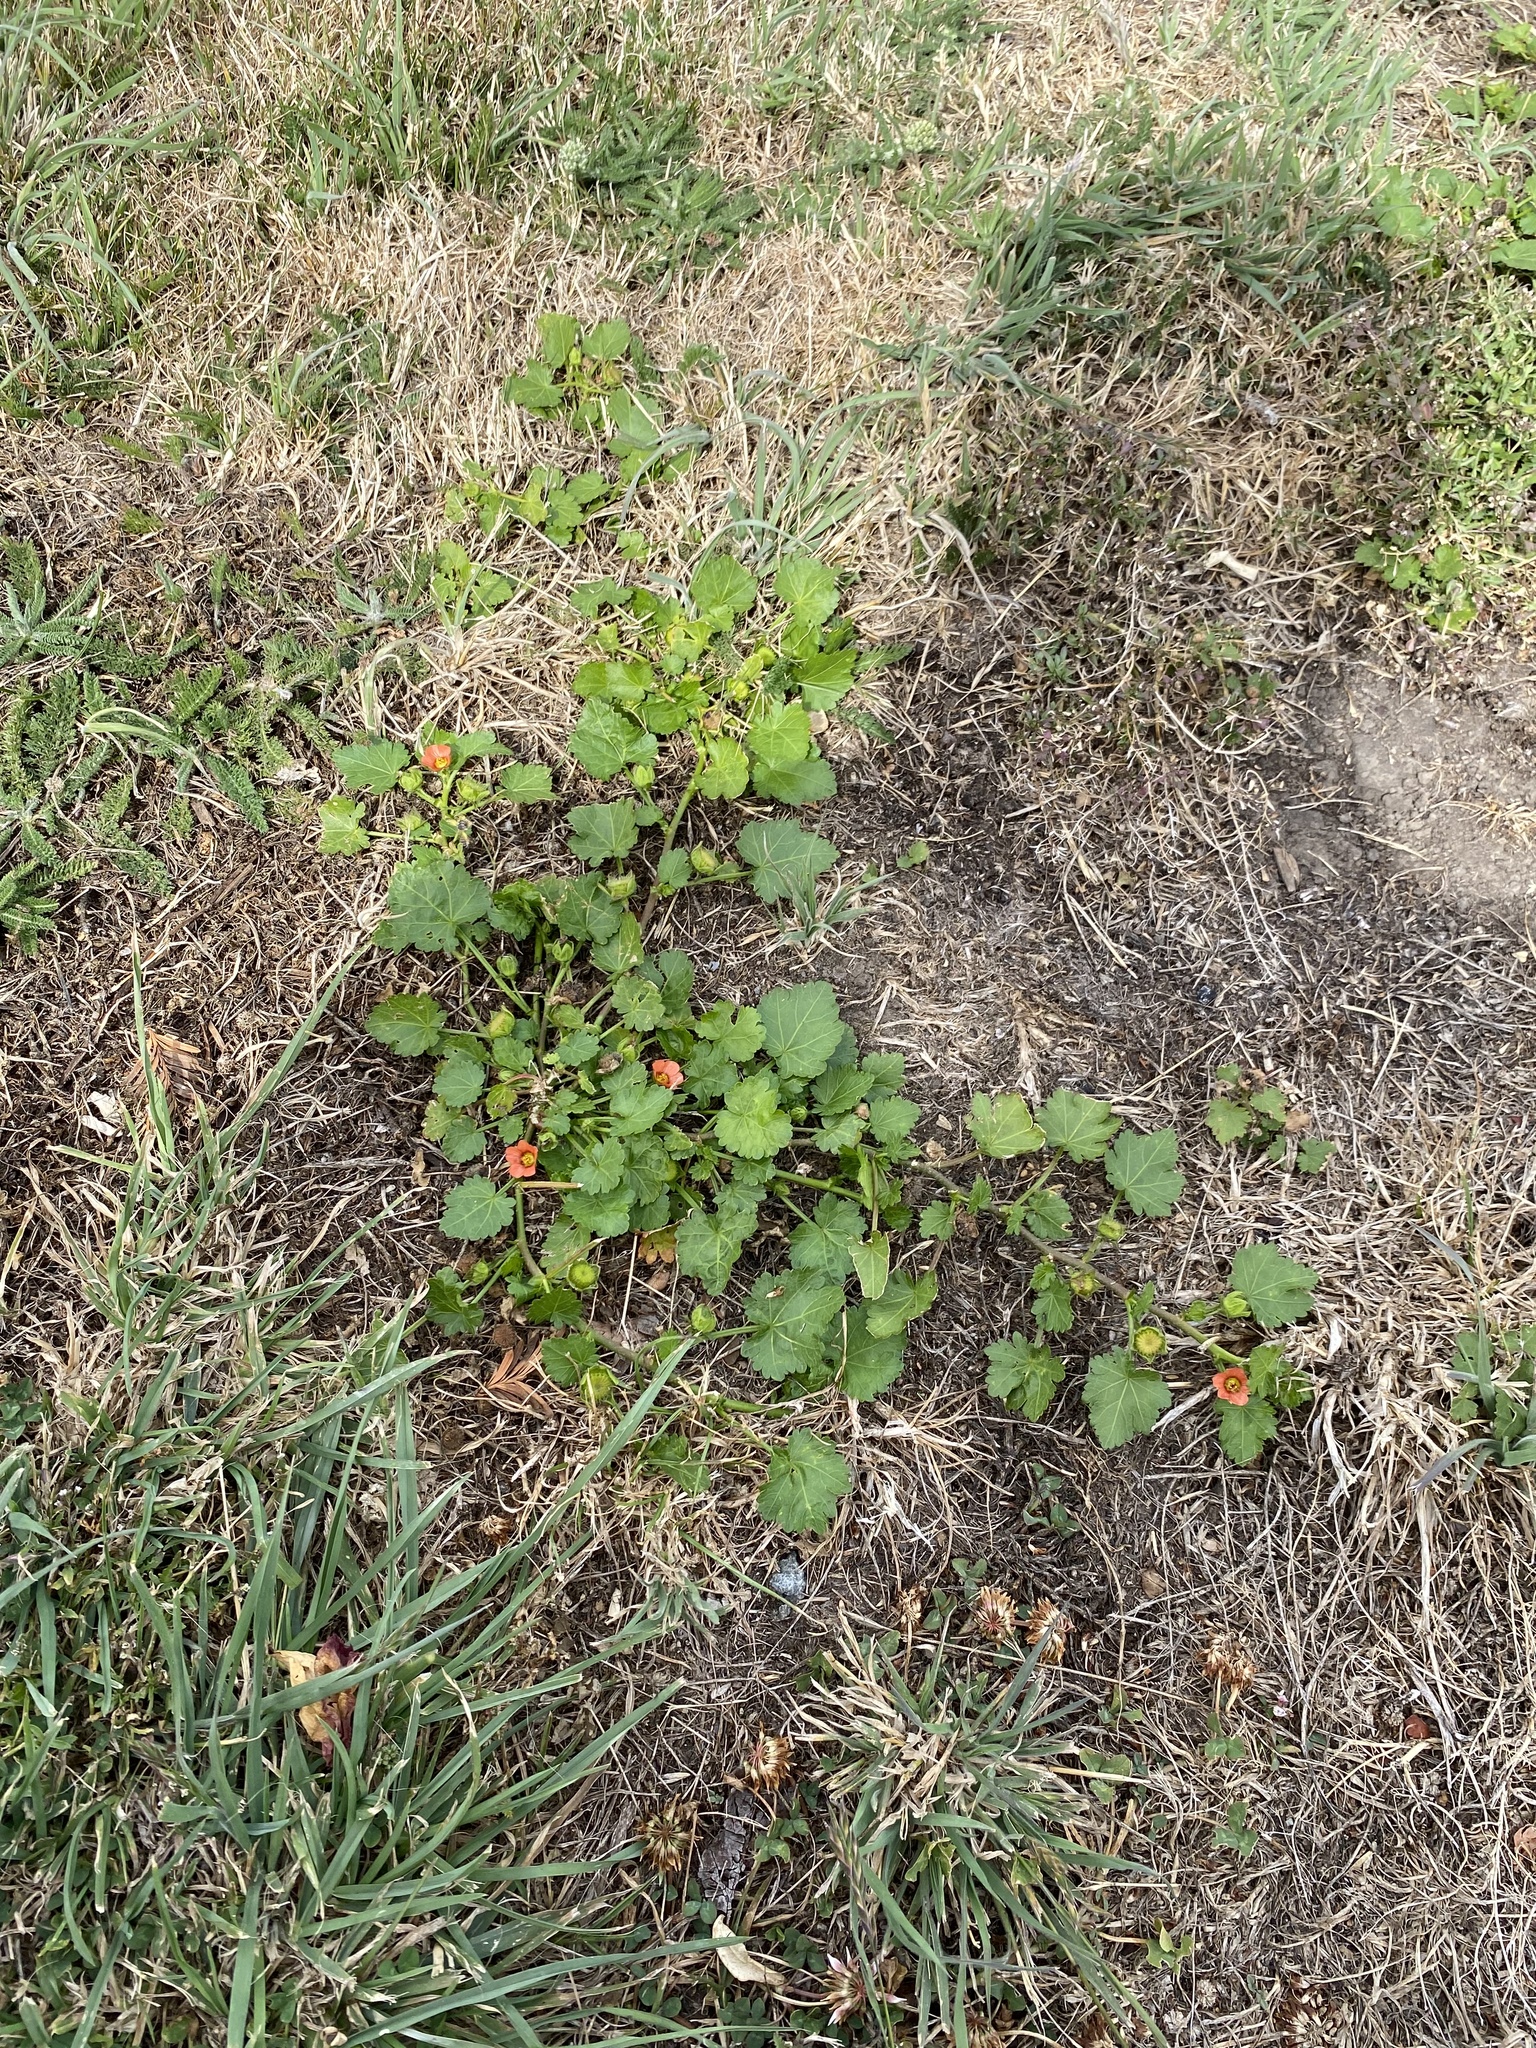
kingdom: Plantae
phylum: Tracheophyta
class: Magnoliopsida
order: Malvales
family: Malvaceae
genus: Modiola
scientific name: Modiola caroliniana
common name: Carolina bristlemallow
